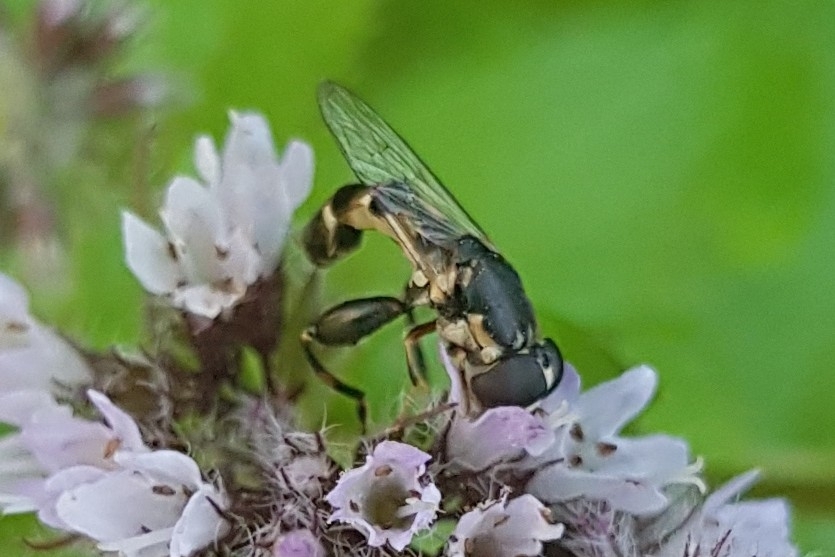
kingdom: Animalia
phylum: Arthropoda
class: Insecta
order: Diptera
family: Syrphidae
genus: Syritta
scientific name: Syritta pipiens
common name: Hover fly
